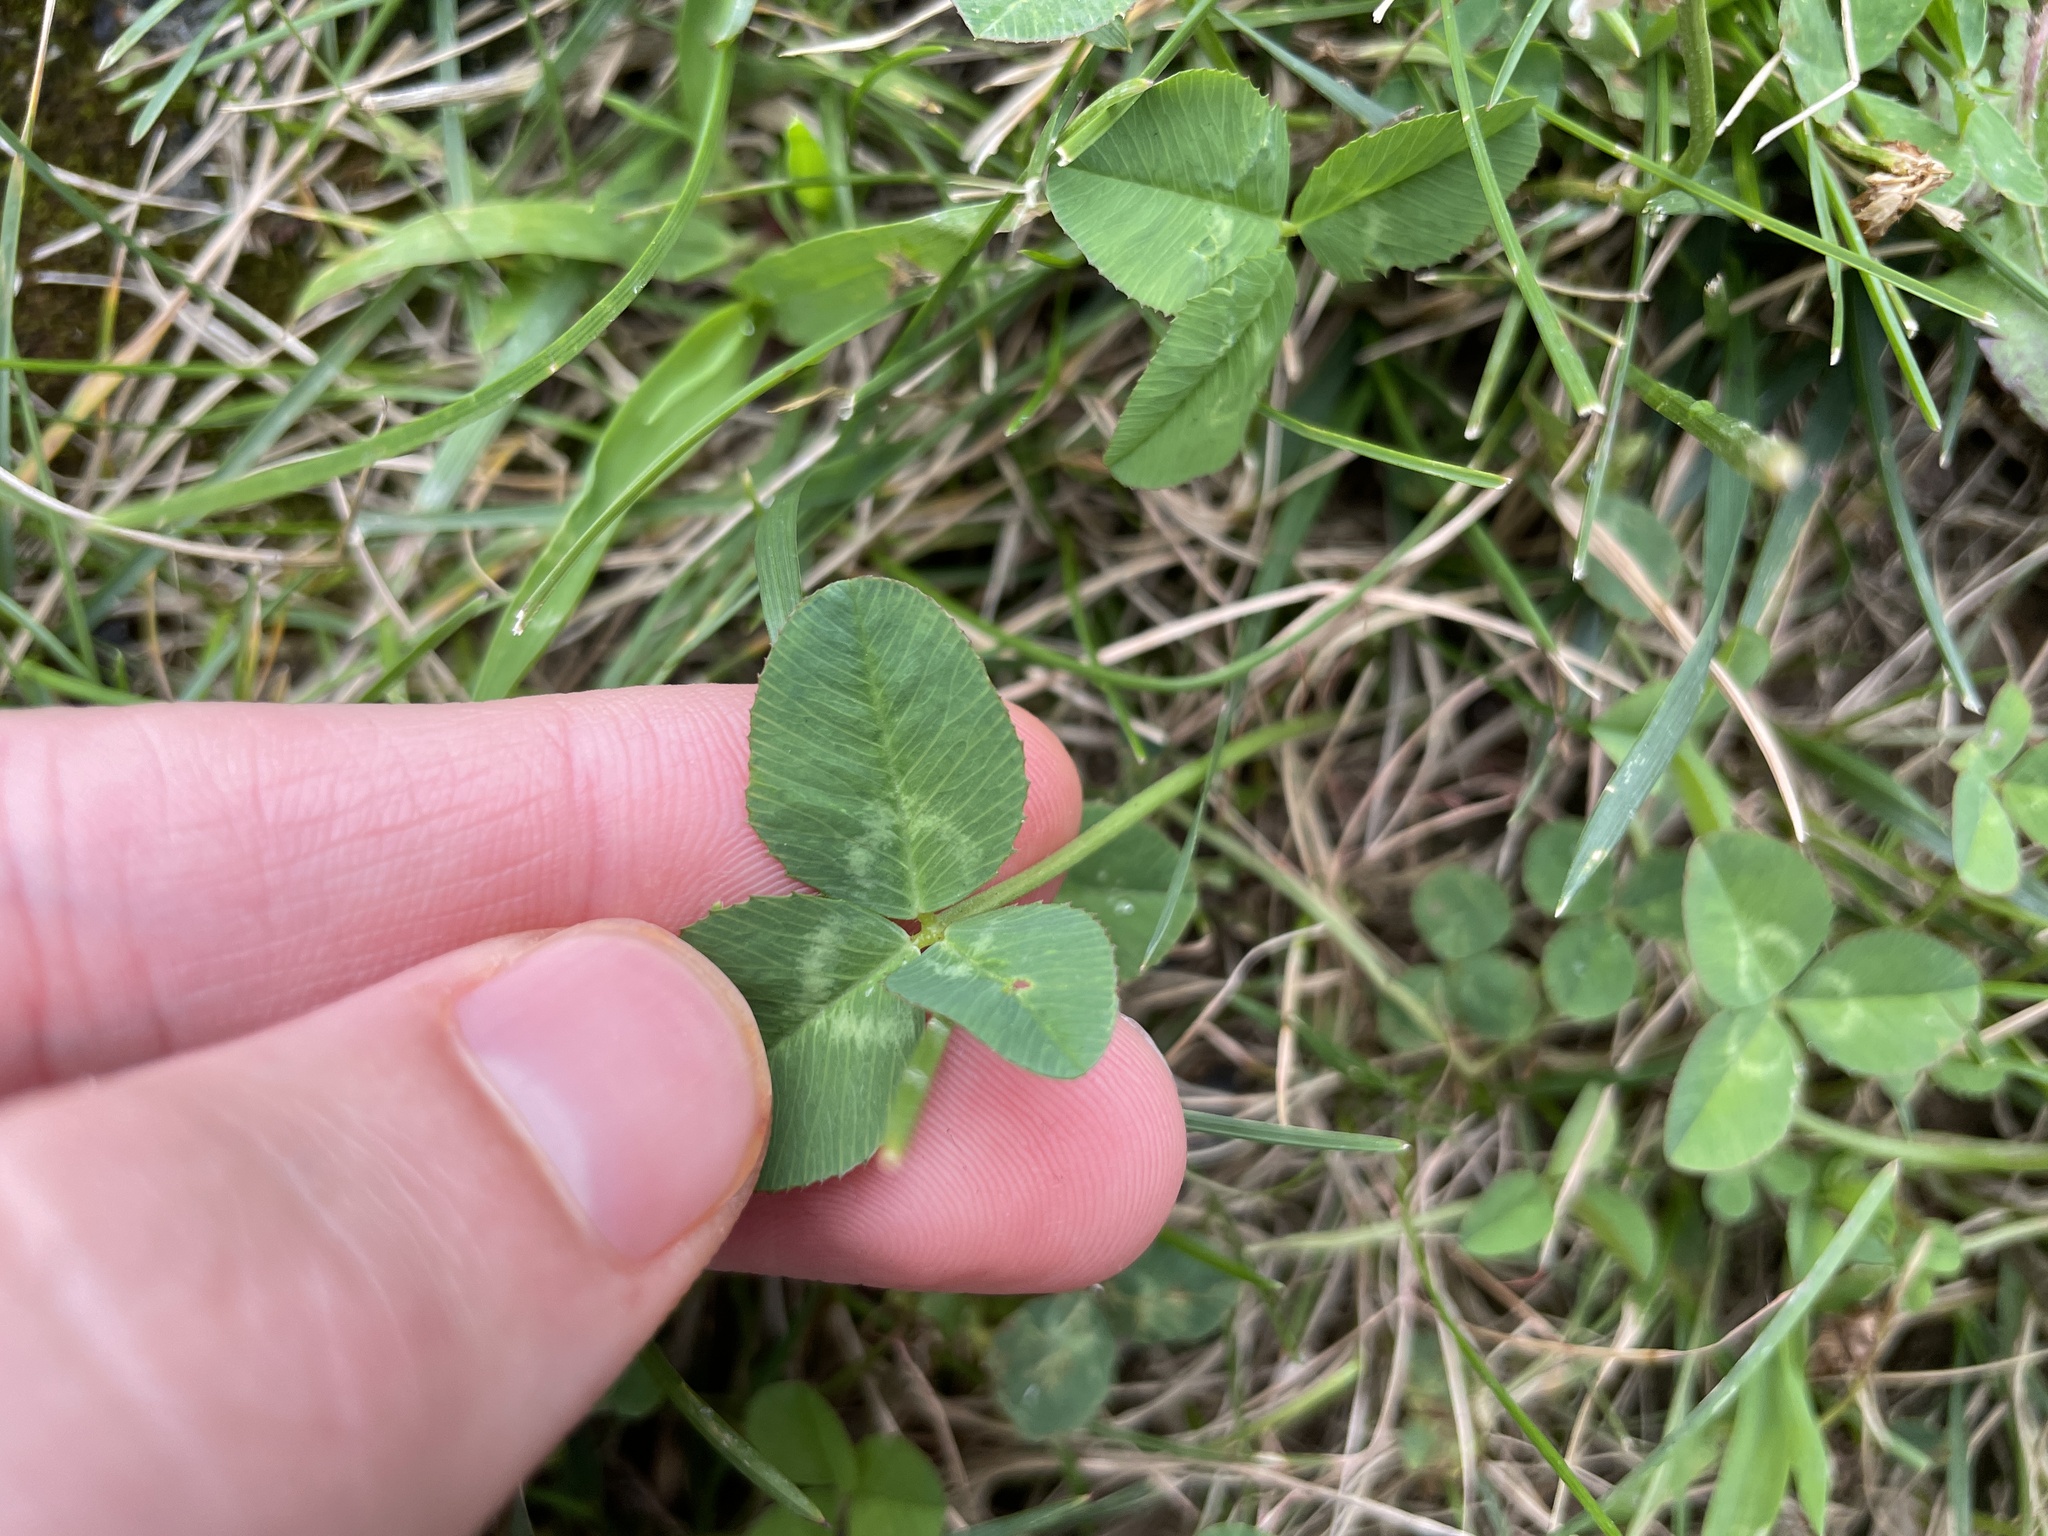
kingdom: Plantae
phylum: Tracheophyta
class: Magnoliopsida
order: Fabales
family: Fabaceae
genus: Trifolium
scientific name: Trifolium repens
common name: White clover
